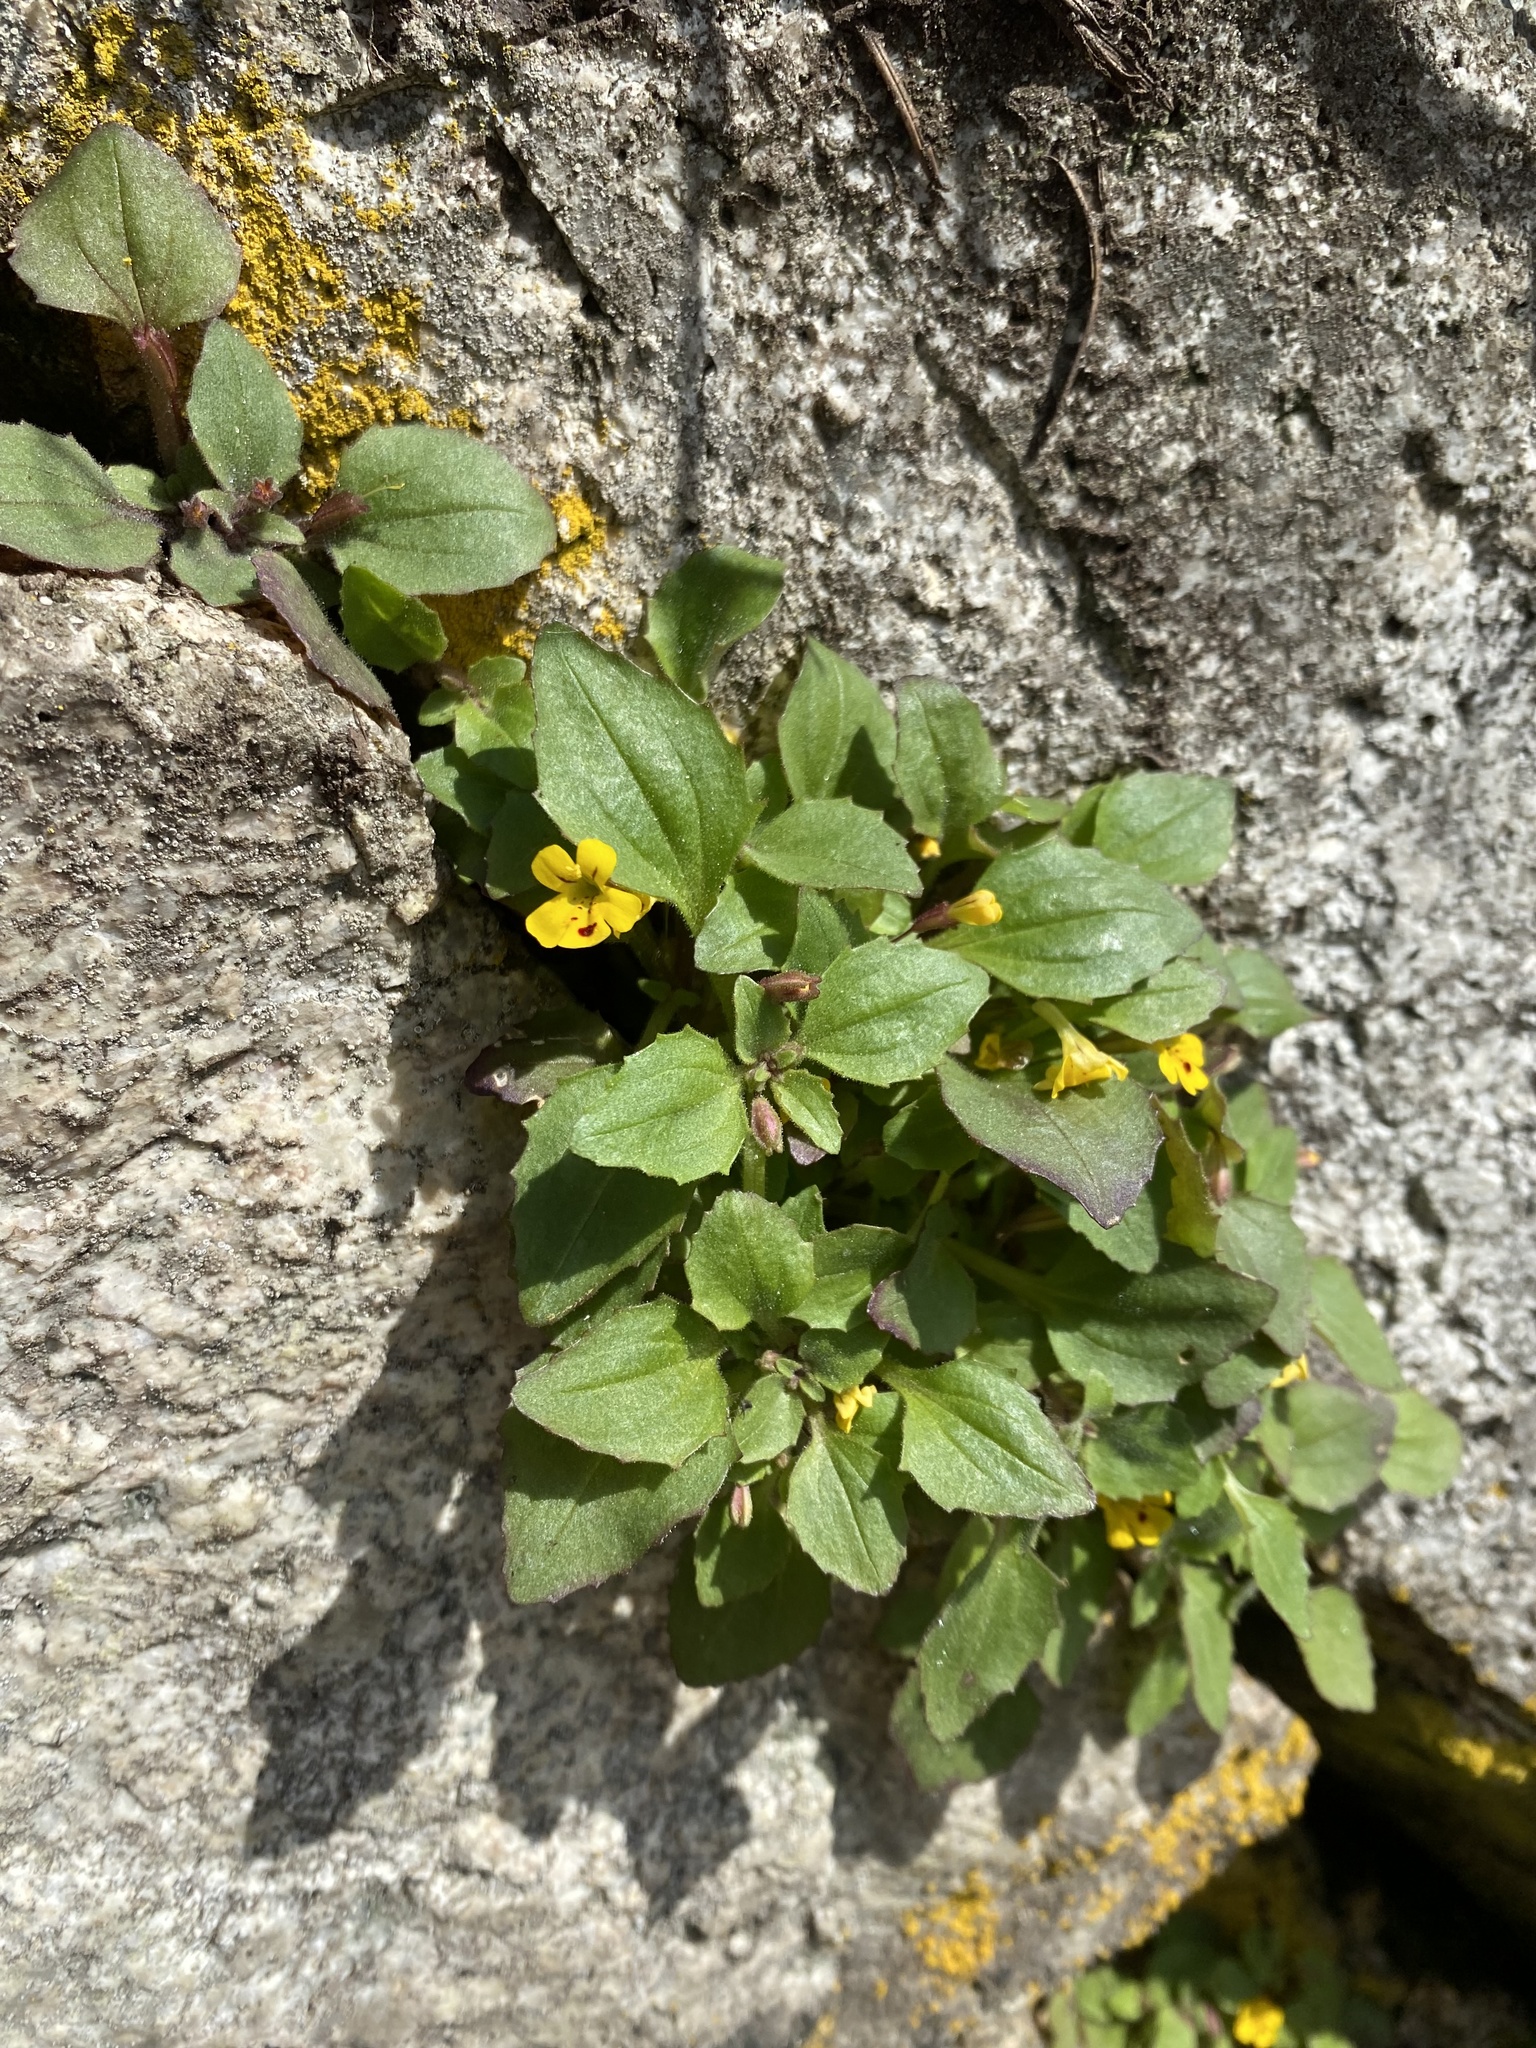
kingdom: Plantae
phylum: Tracheophyta
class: Magnoliopsida
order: Lamiales
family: Phrymaceae
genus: Erythranthe
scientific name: Erythranthe alsinoides
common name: Chickweed monkeyflower
